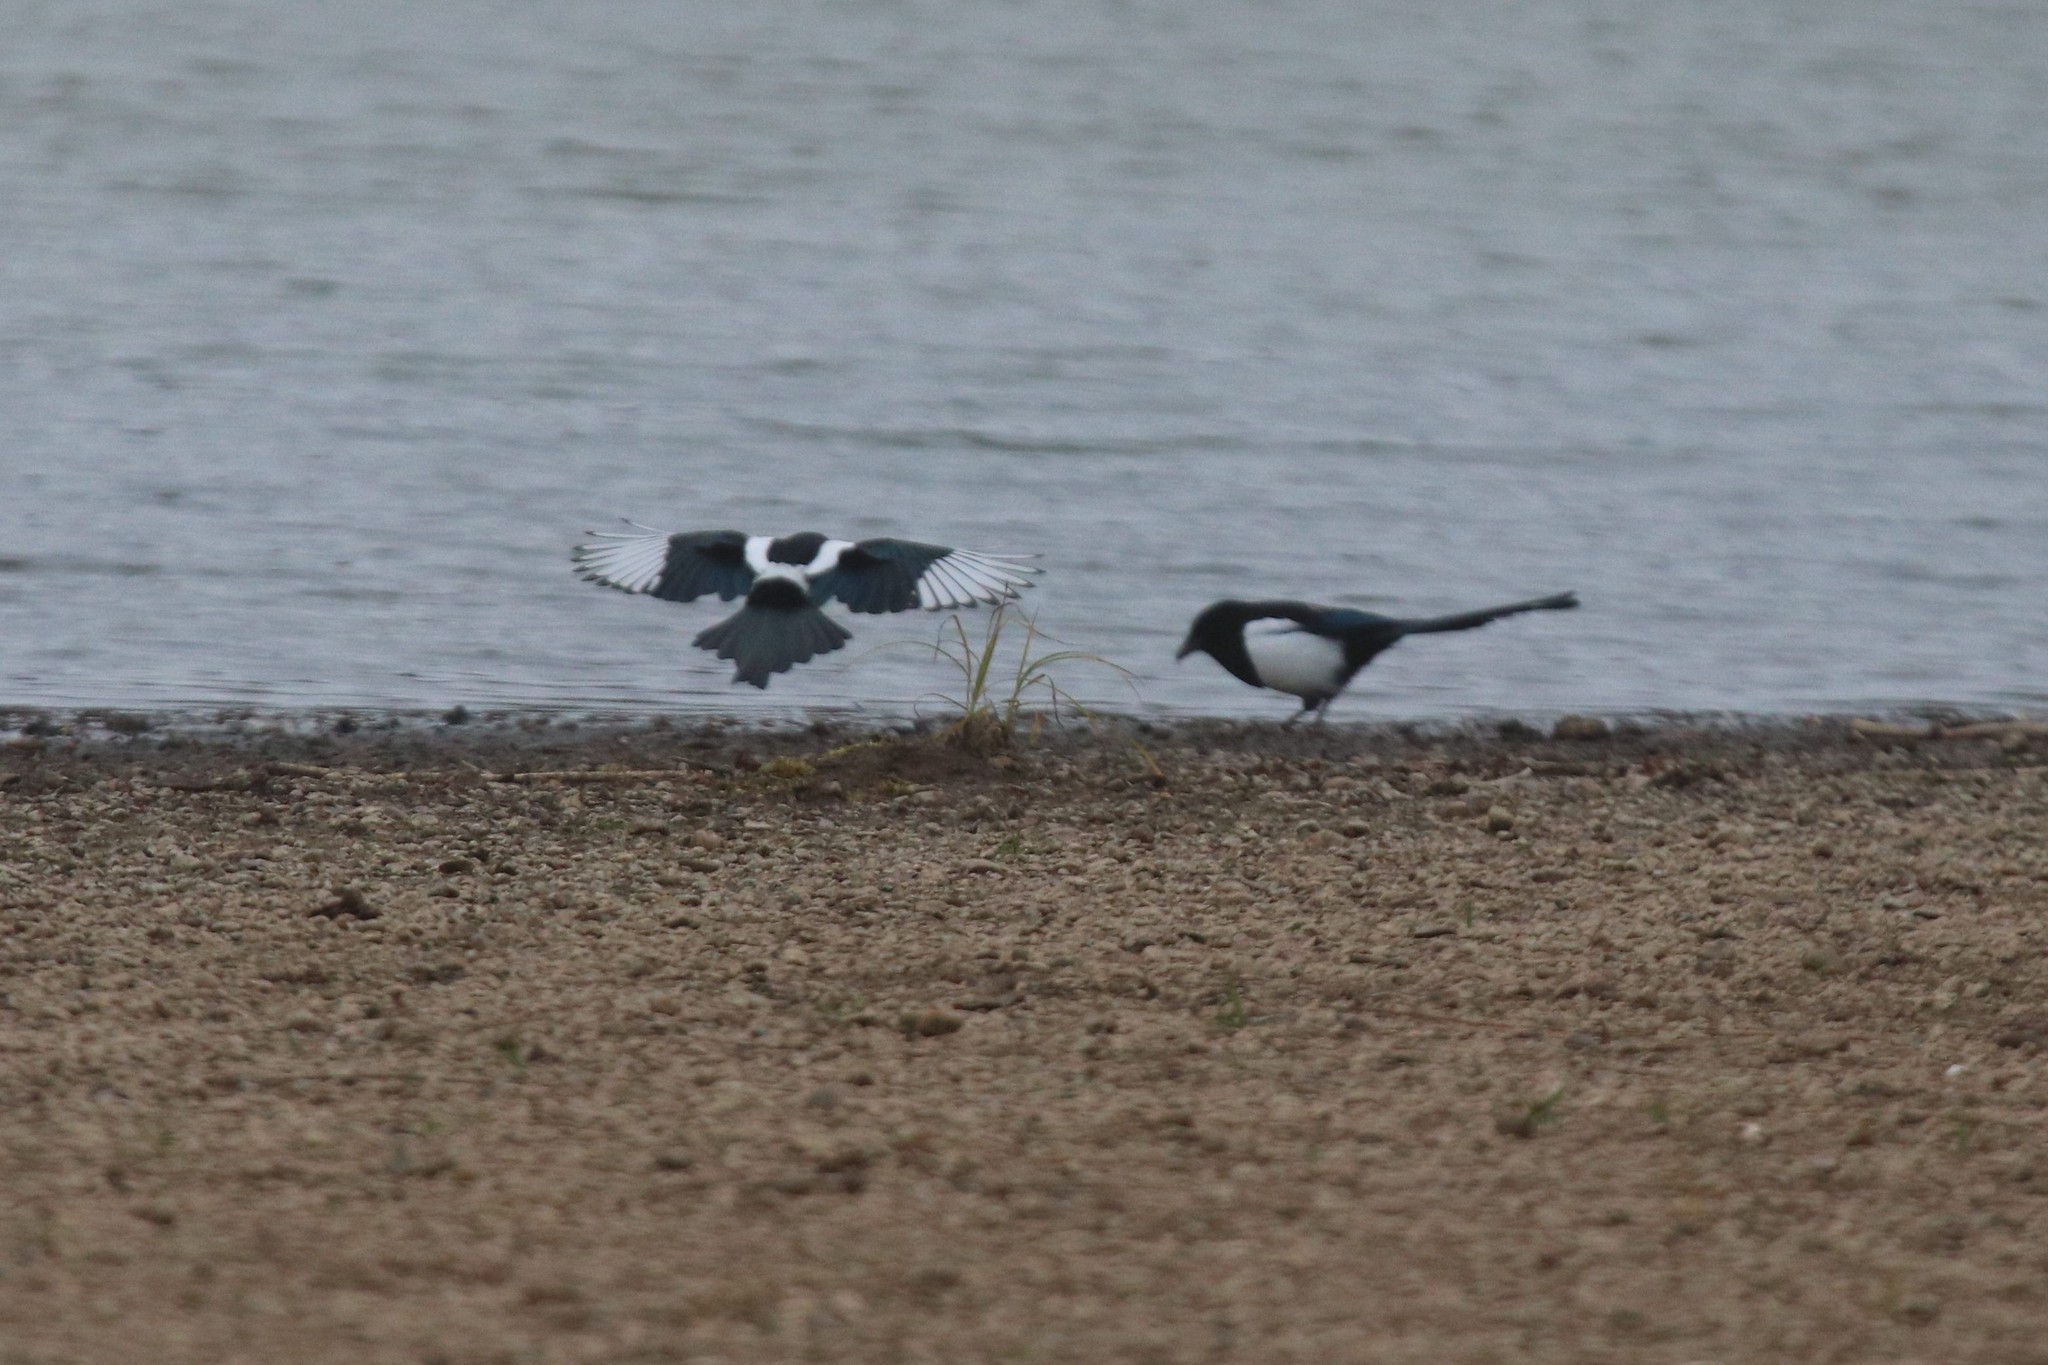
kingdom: Animalia
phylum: Chordata
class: Aves
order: Passeriformes
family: Corvidae
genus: Pica
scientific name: Pica pica
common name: Eurasian magpie
